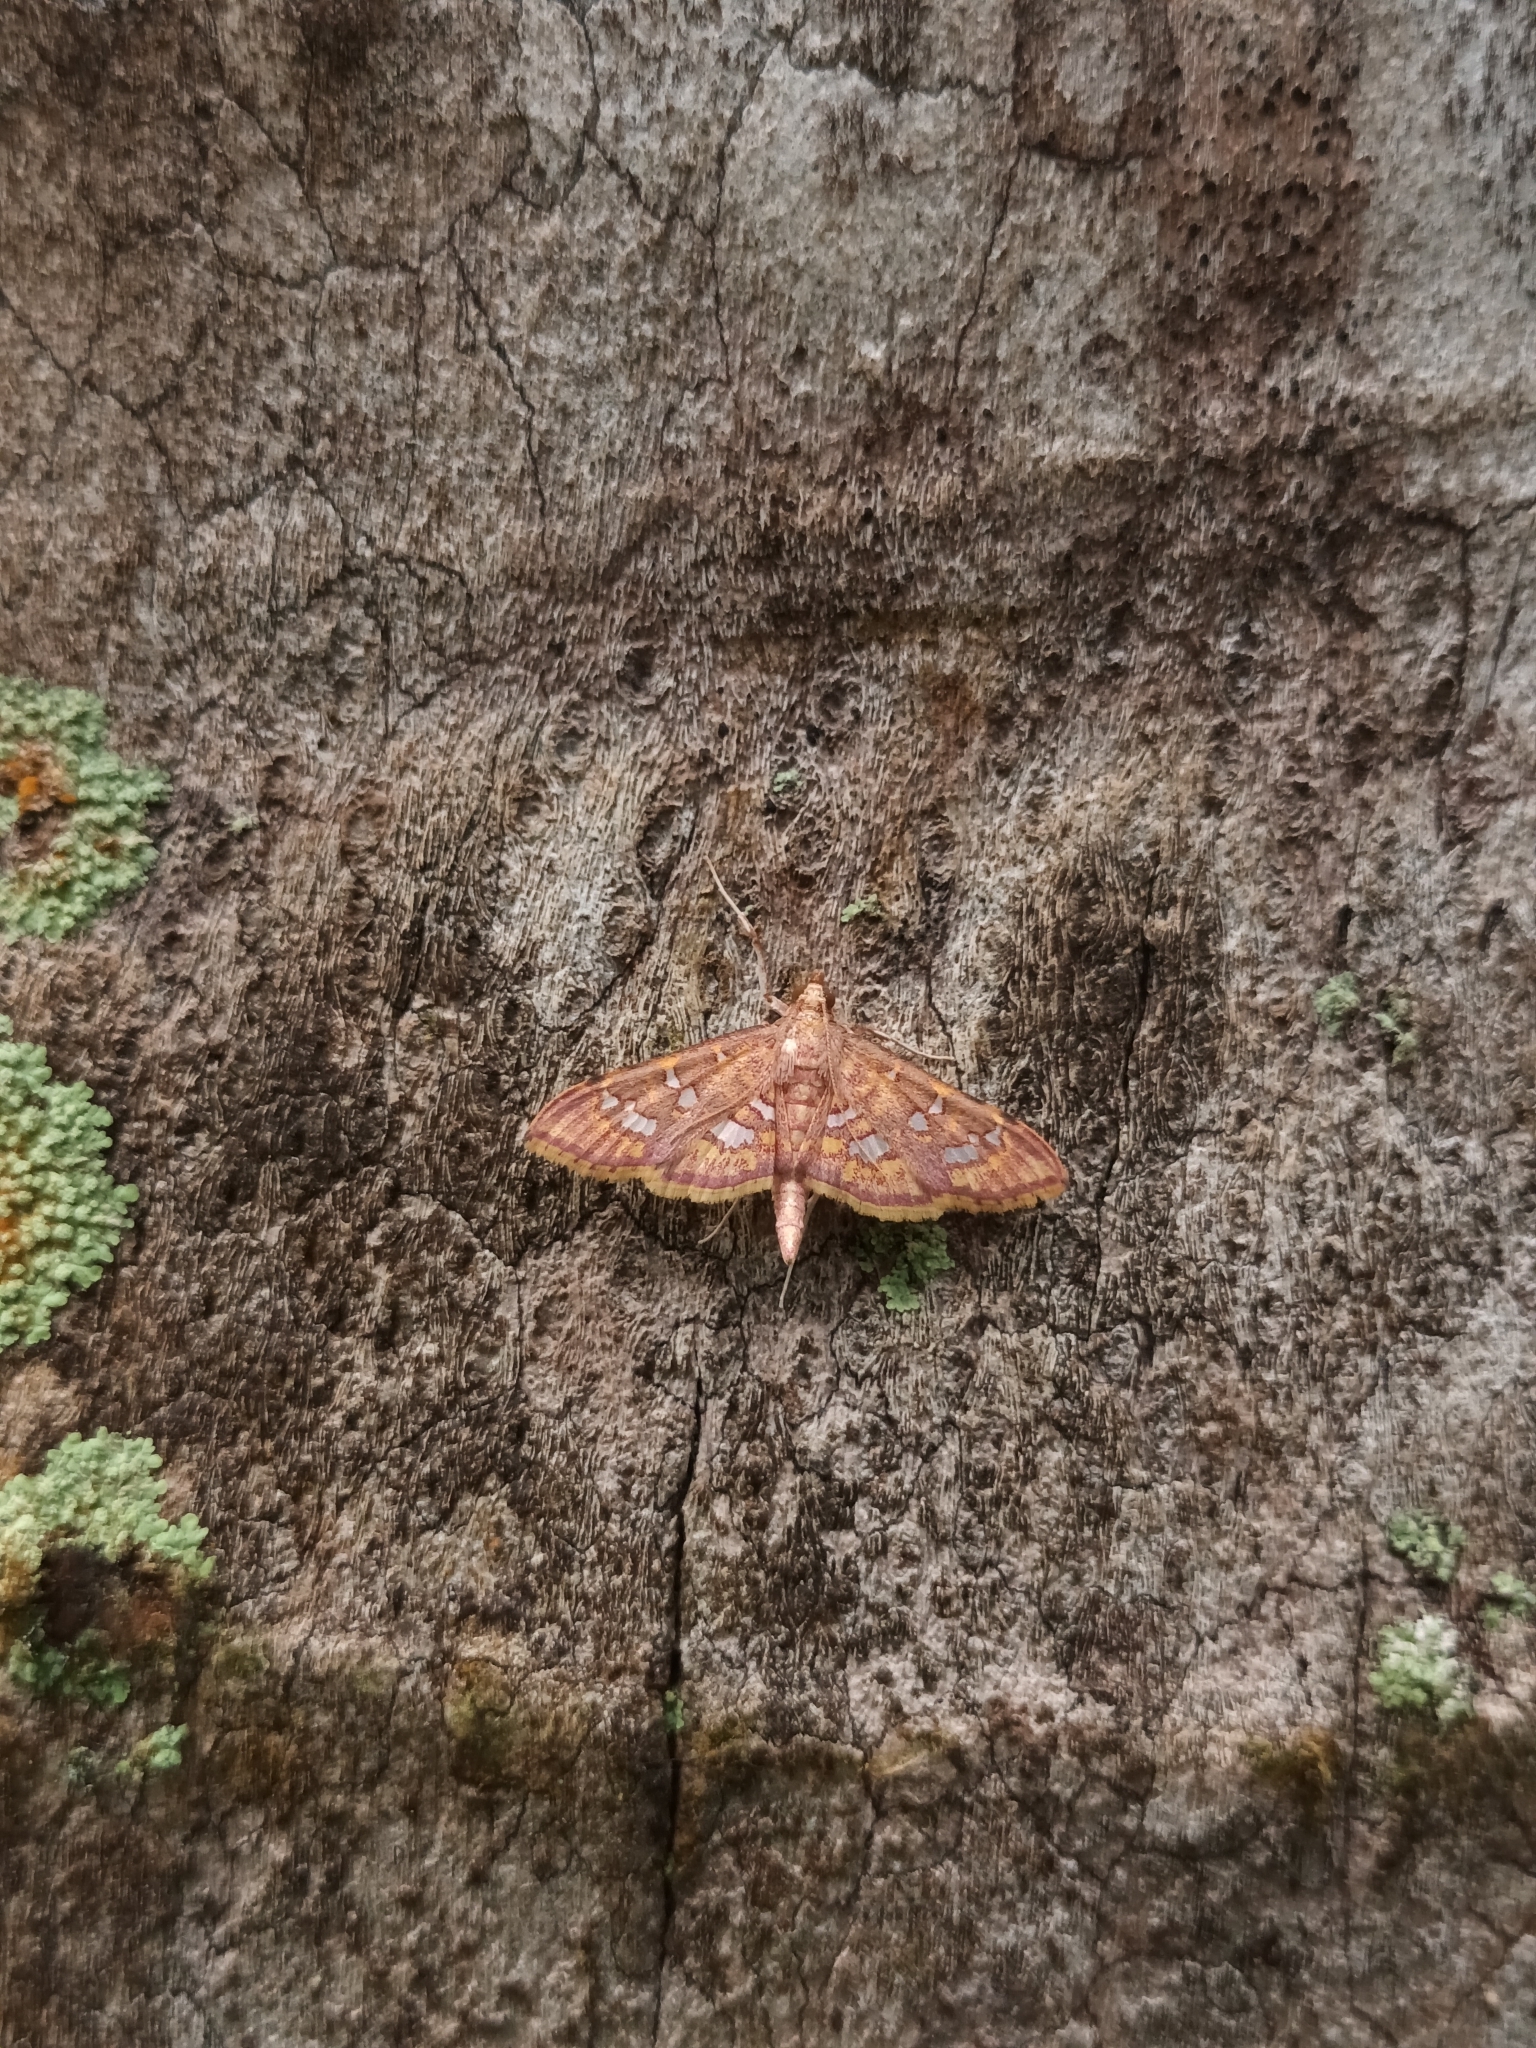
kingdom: Animalia
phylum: Arthropoda
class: Insecta
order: Lepidoptera
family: Crambidae
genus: Ischnurges
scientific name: Ischnurges gratiosalis
